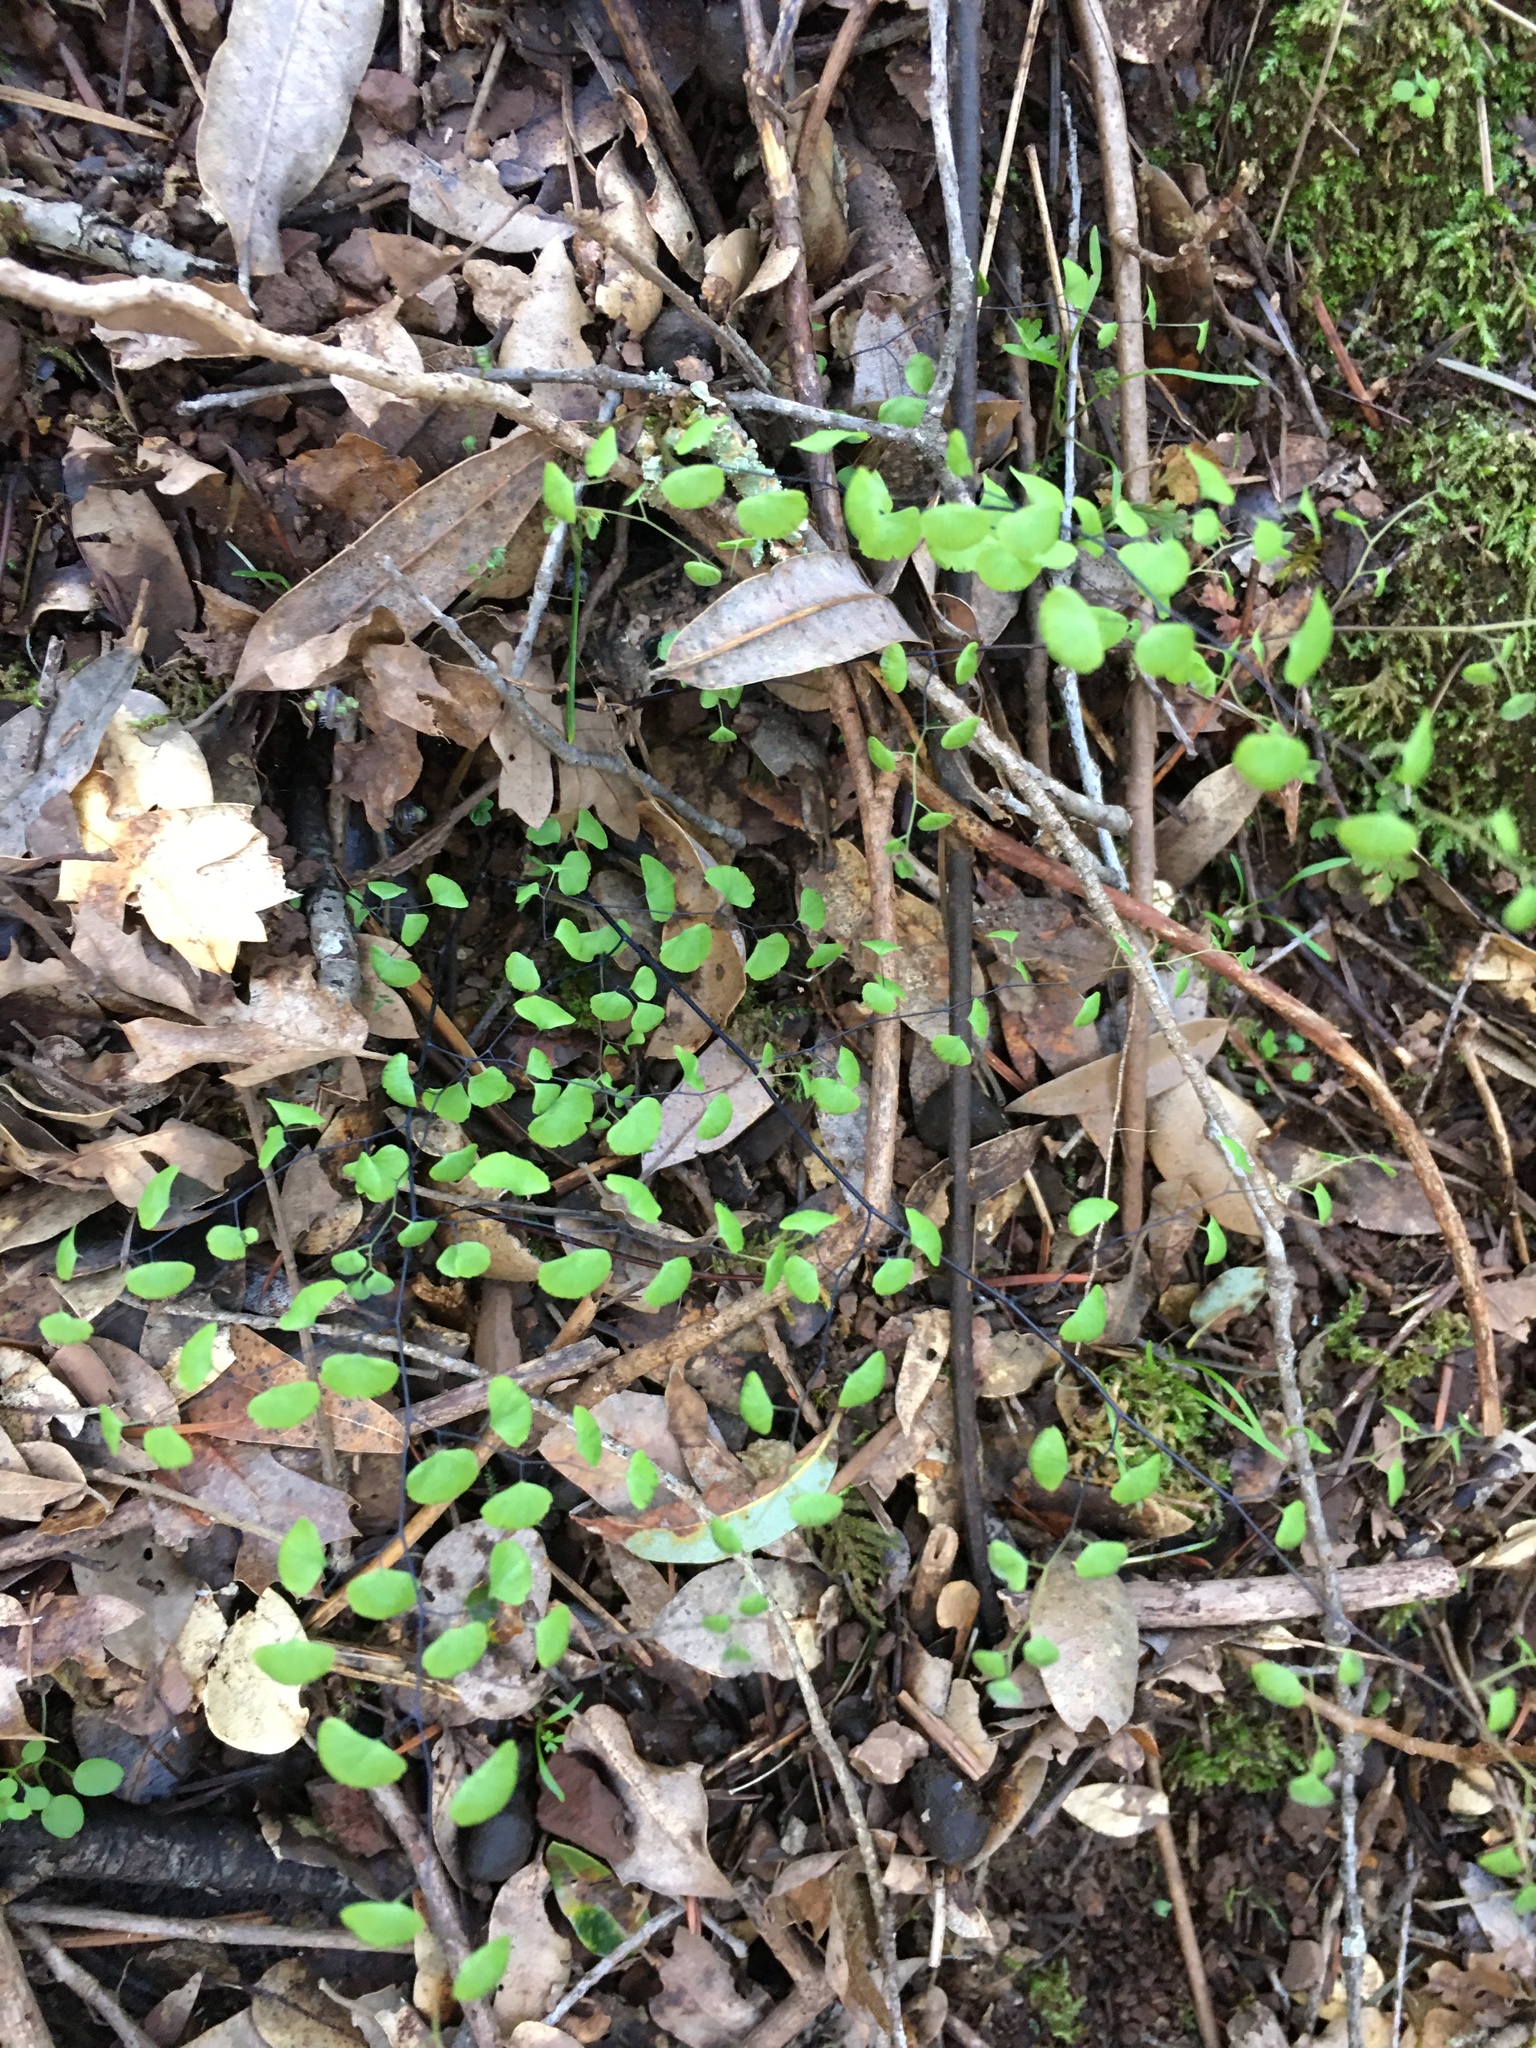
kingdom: Plantae
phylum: Tracheophyta
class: Polypodiopsida
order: Polypodiales
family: Pteridaceae
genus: Adiantum
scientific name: Adiantum jordanii
